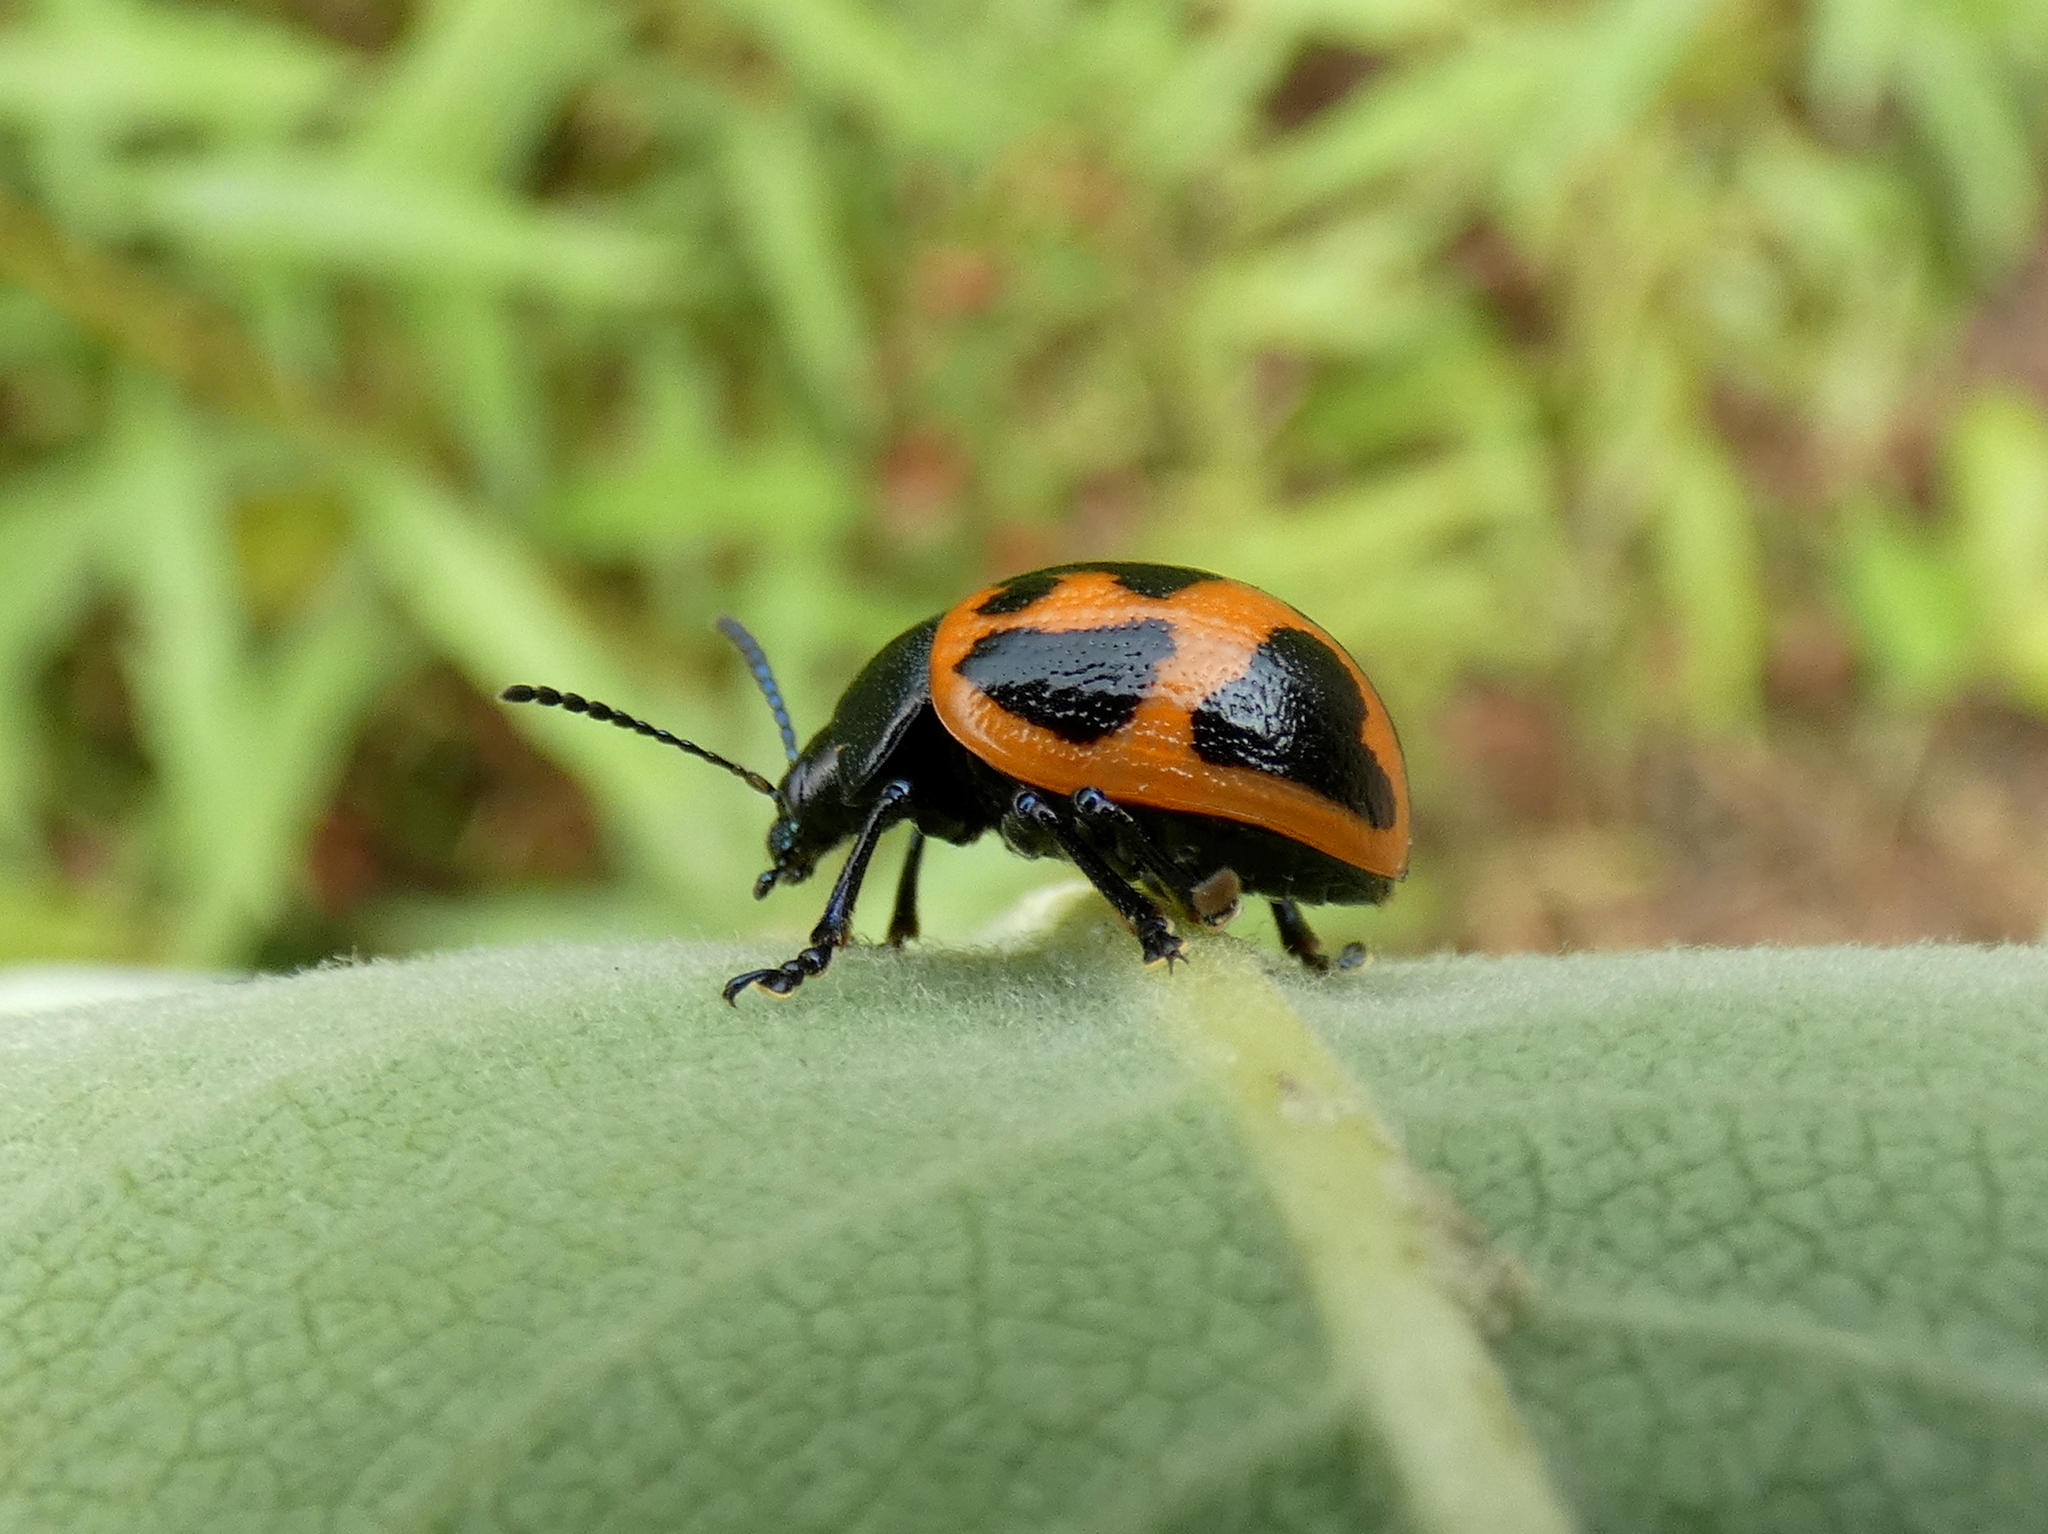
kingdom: Animalia
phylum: Arthropoda
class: Insecta
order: Coleoptera
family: Chrysomelidae
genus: Labidomera
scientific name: Labidomera clivicollis
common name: Swamp milkweed leaf beetle
